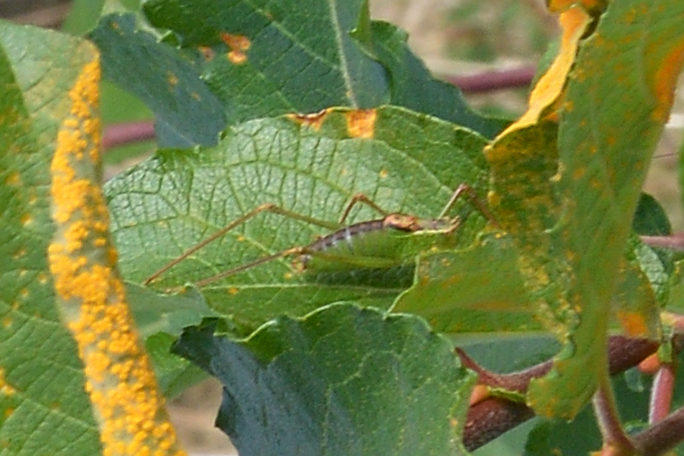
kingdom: Animalia
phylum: Arthropoda
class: Insecta
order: Orthoptera
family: Tettigoniidae
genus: Leptophyes
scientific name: Leptophyes punctatissima
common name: Speckled bush-cricket
